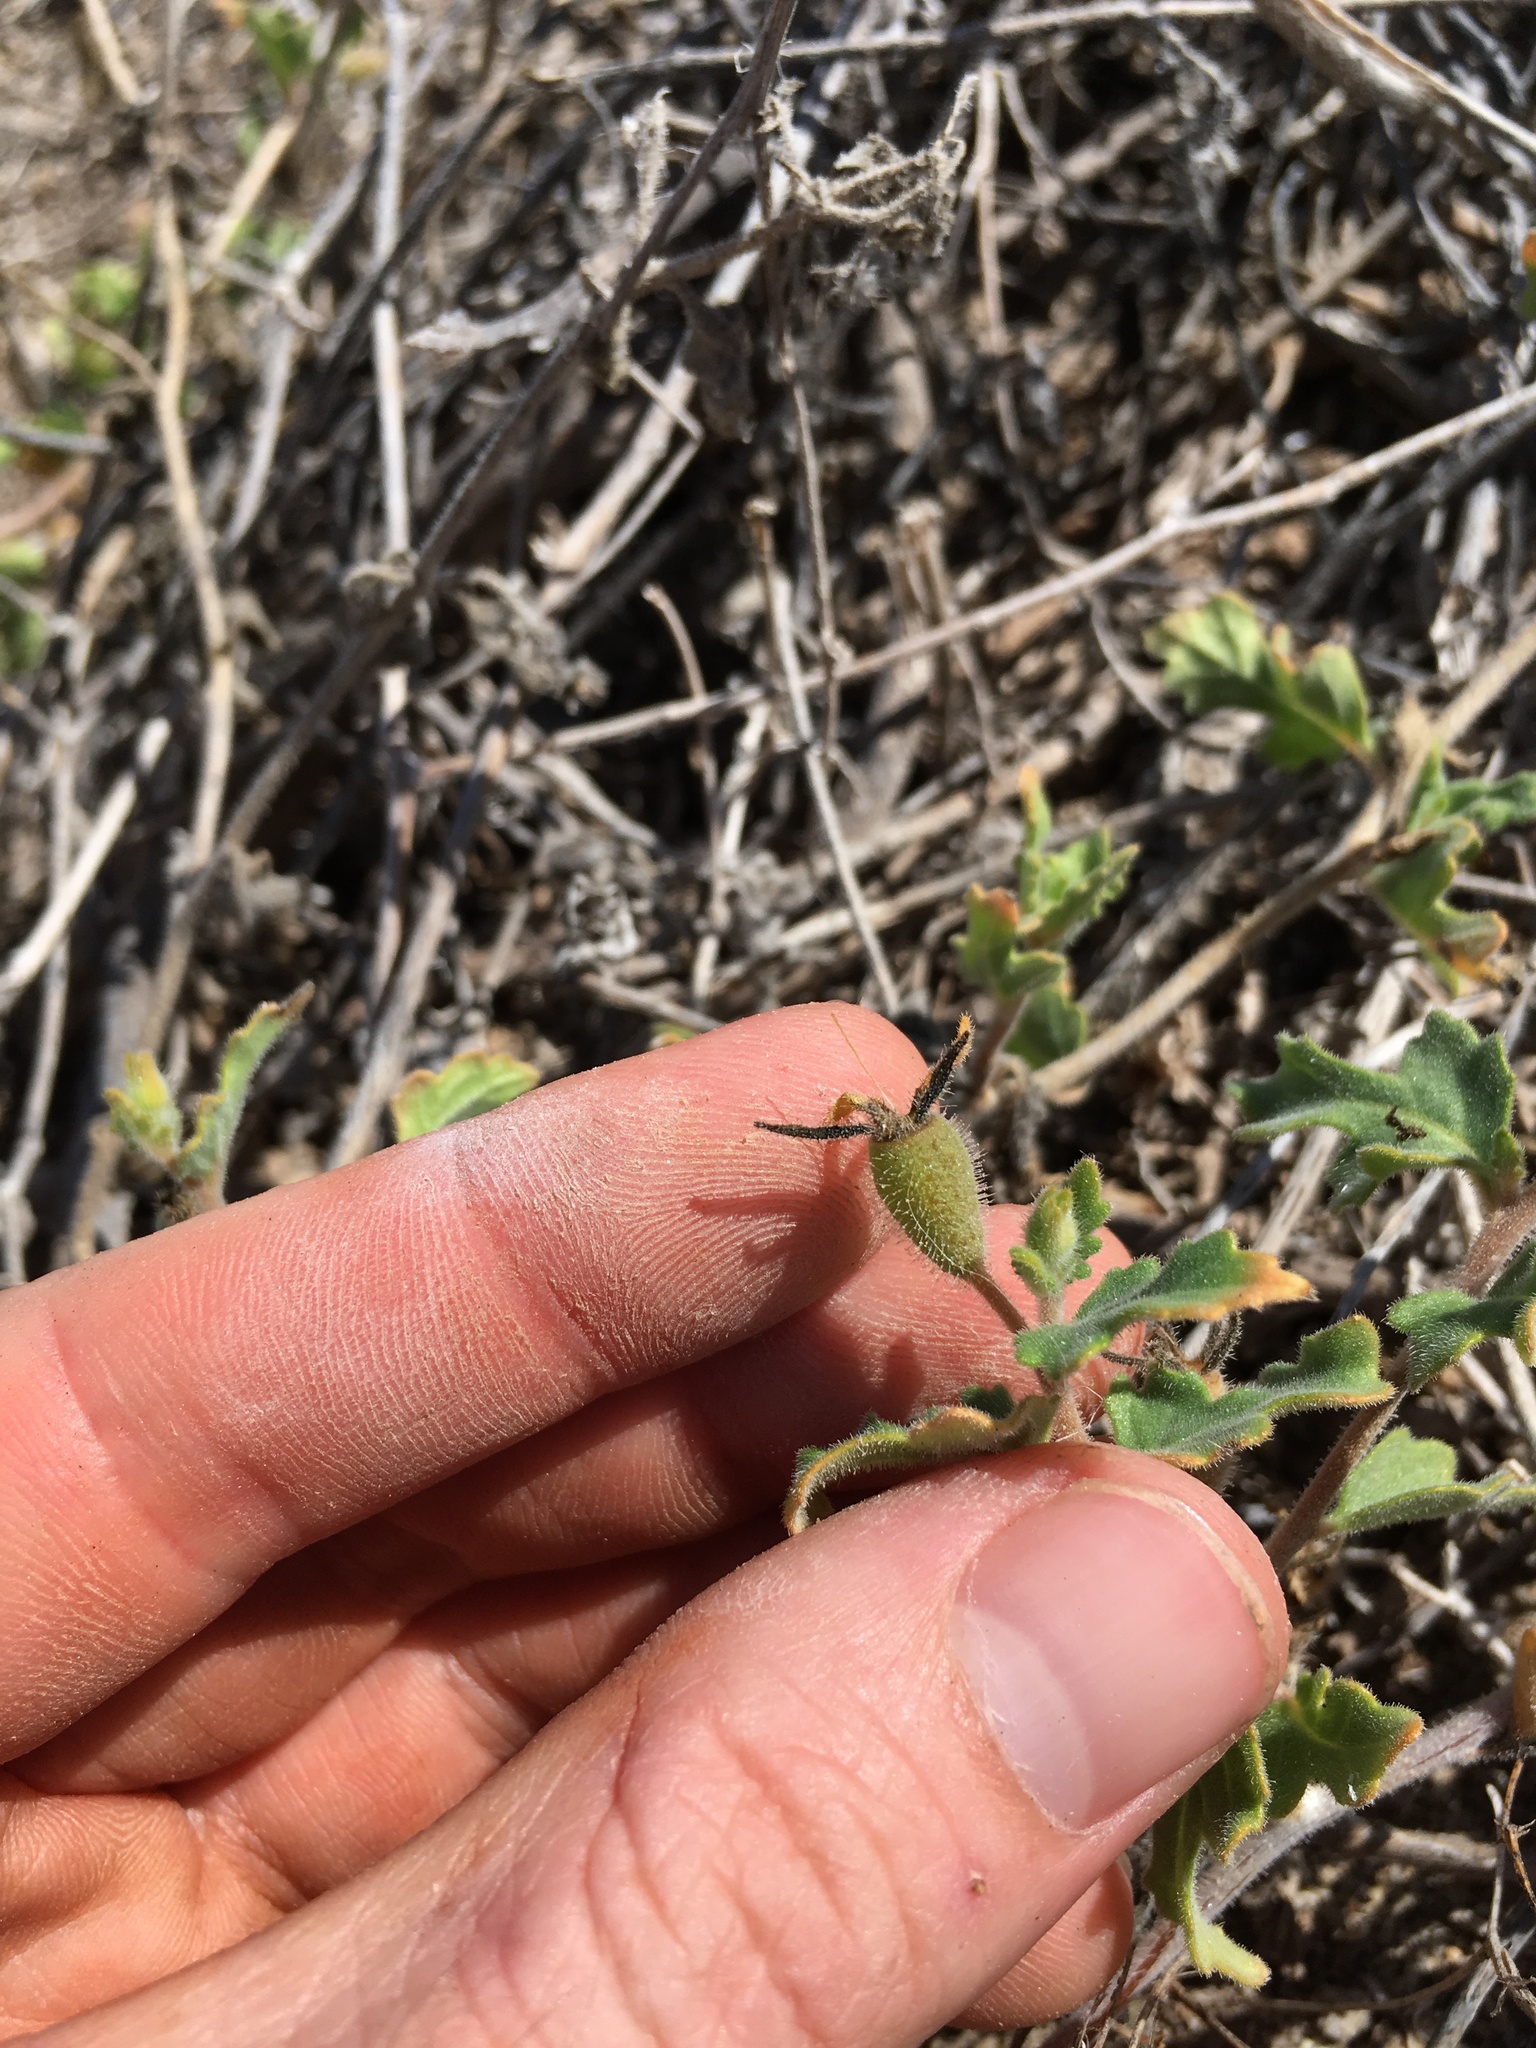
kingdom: Plantae
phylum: Tracheophyta
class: Magnoliopsida
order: Cornales
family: Loasaceae
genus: Mentzelia
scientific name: Mentzelia adhaerens
